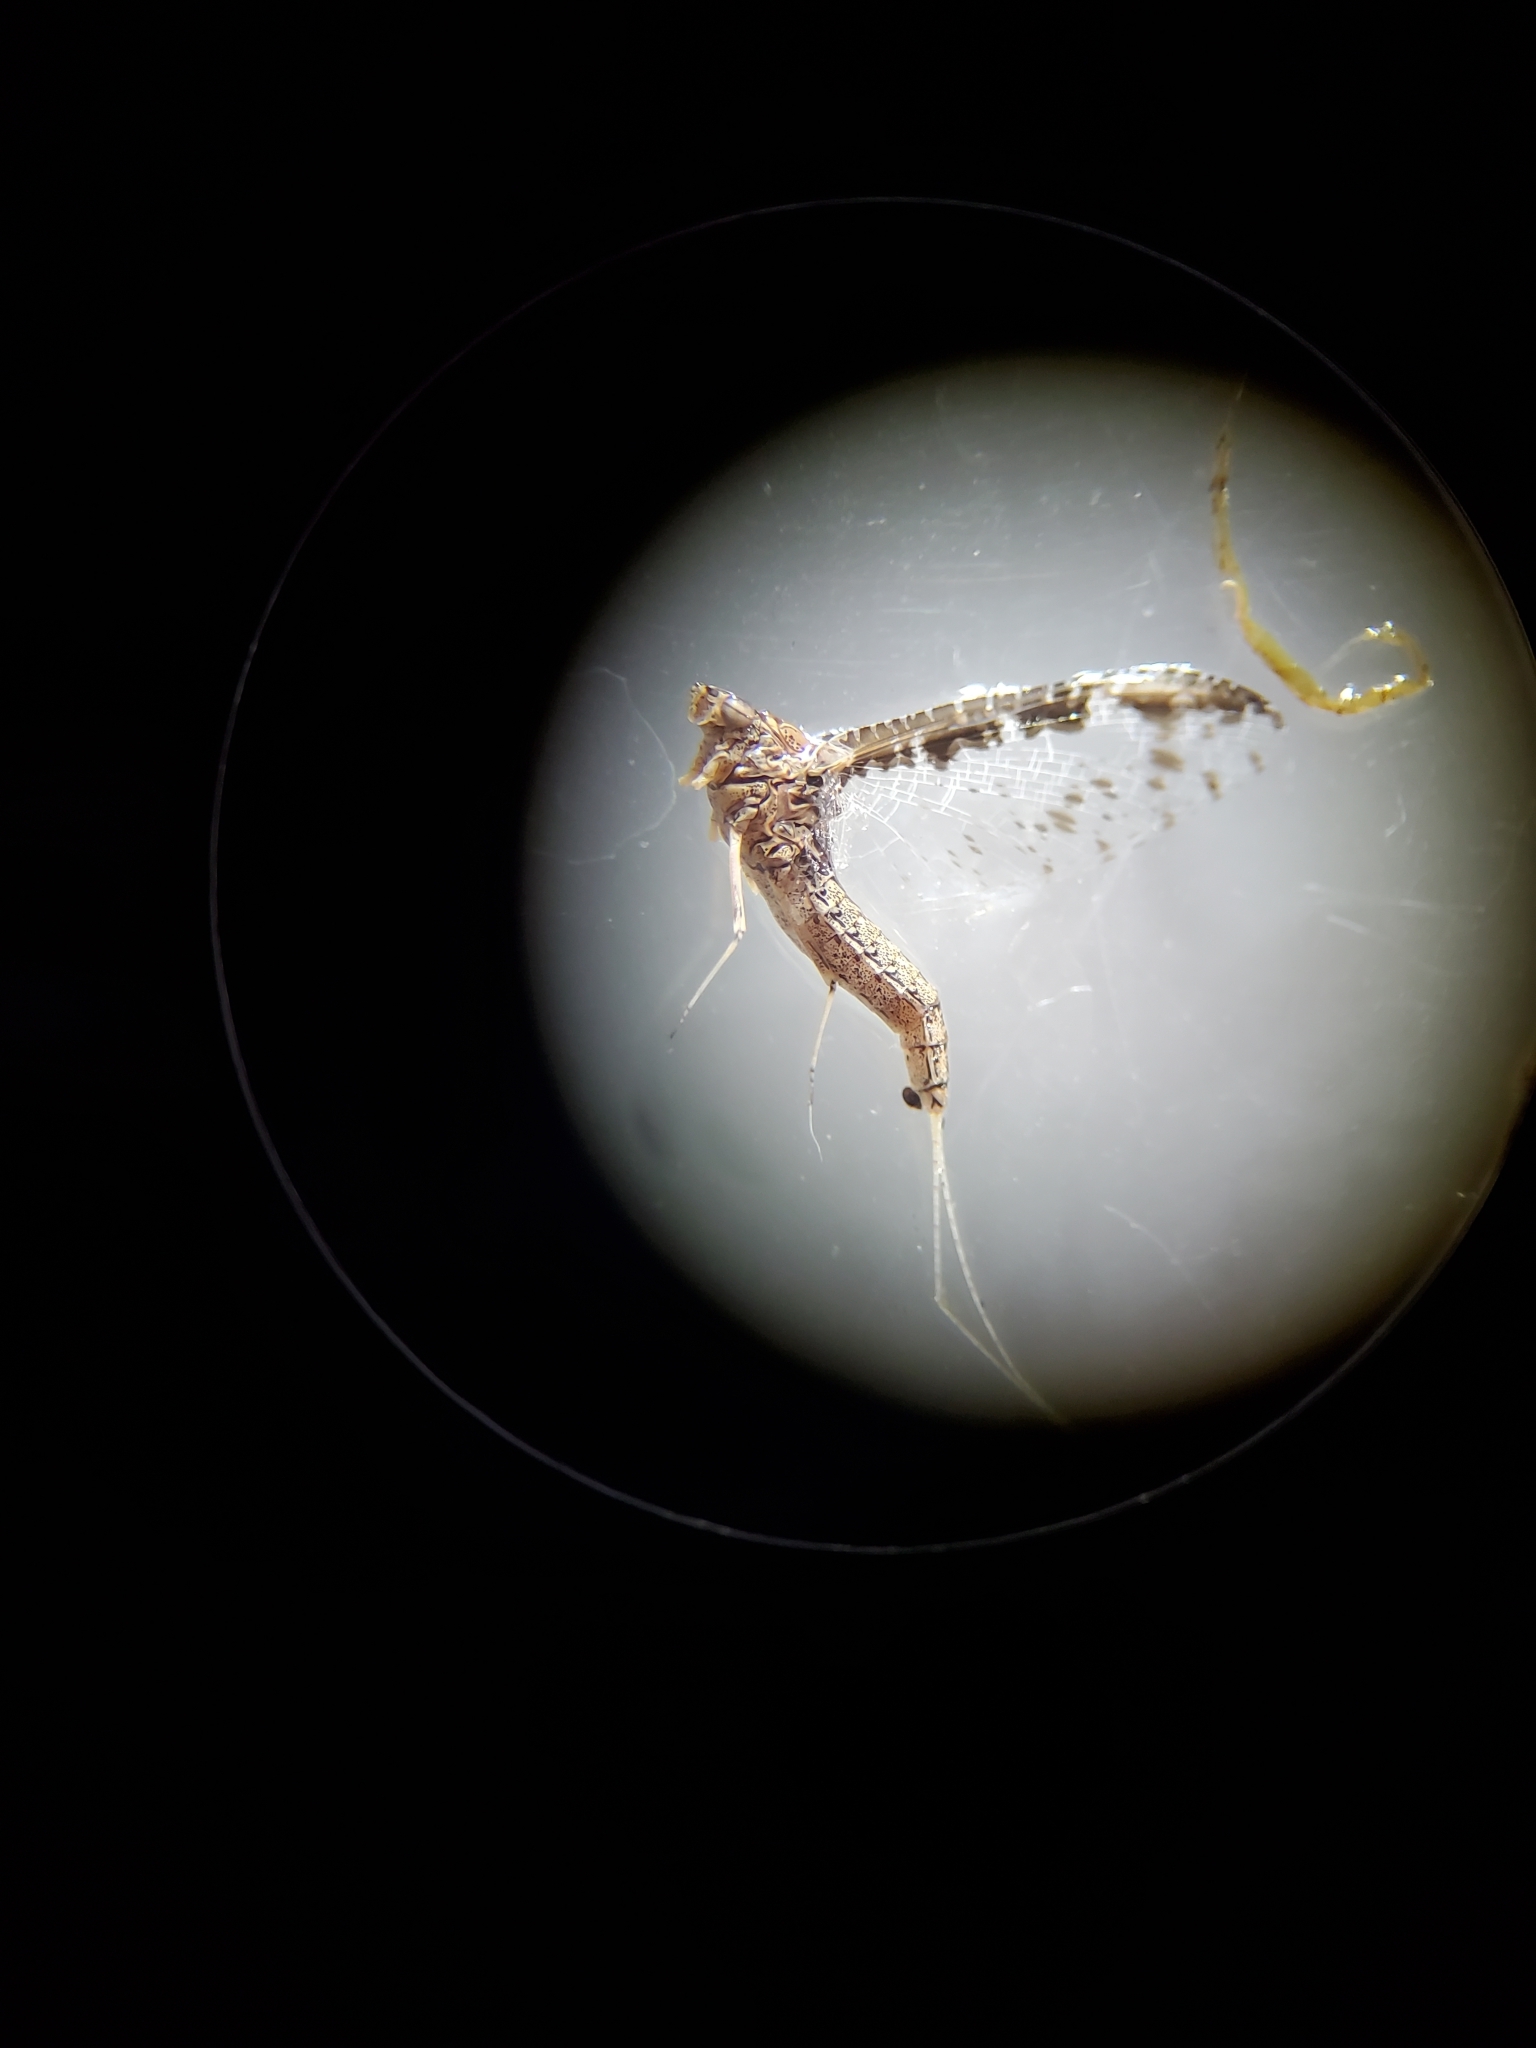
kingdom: Animalia
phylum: Arthropoda
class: Insecta
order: Ephemeroptera
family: Baetidae
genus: Callibaetis
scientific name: Callibaetis ferrugineus
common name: Red speckled dun
